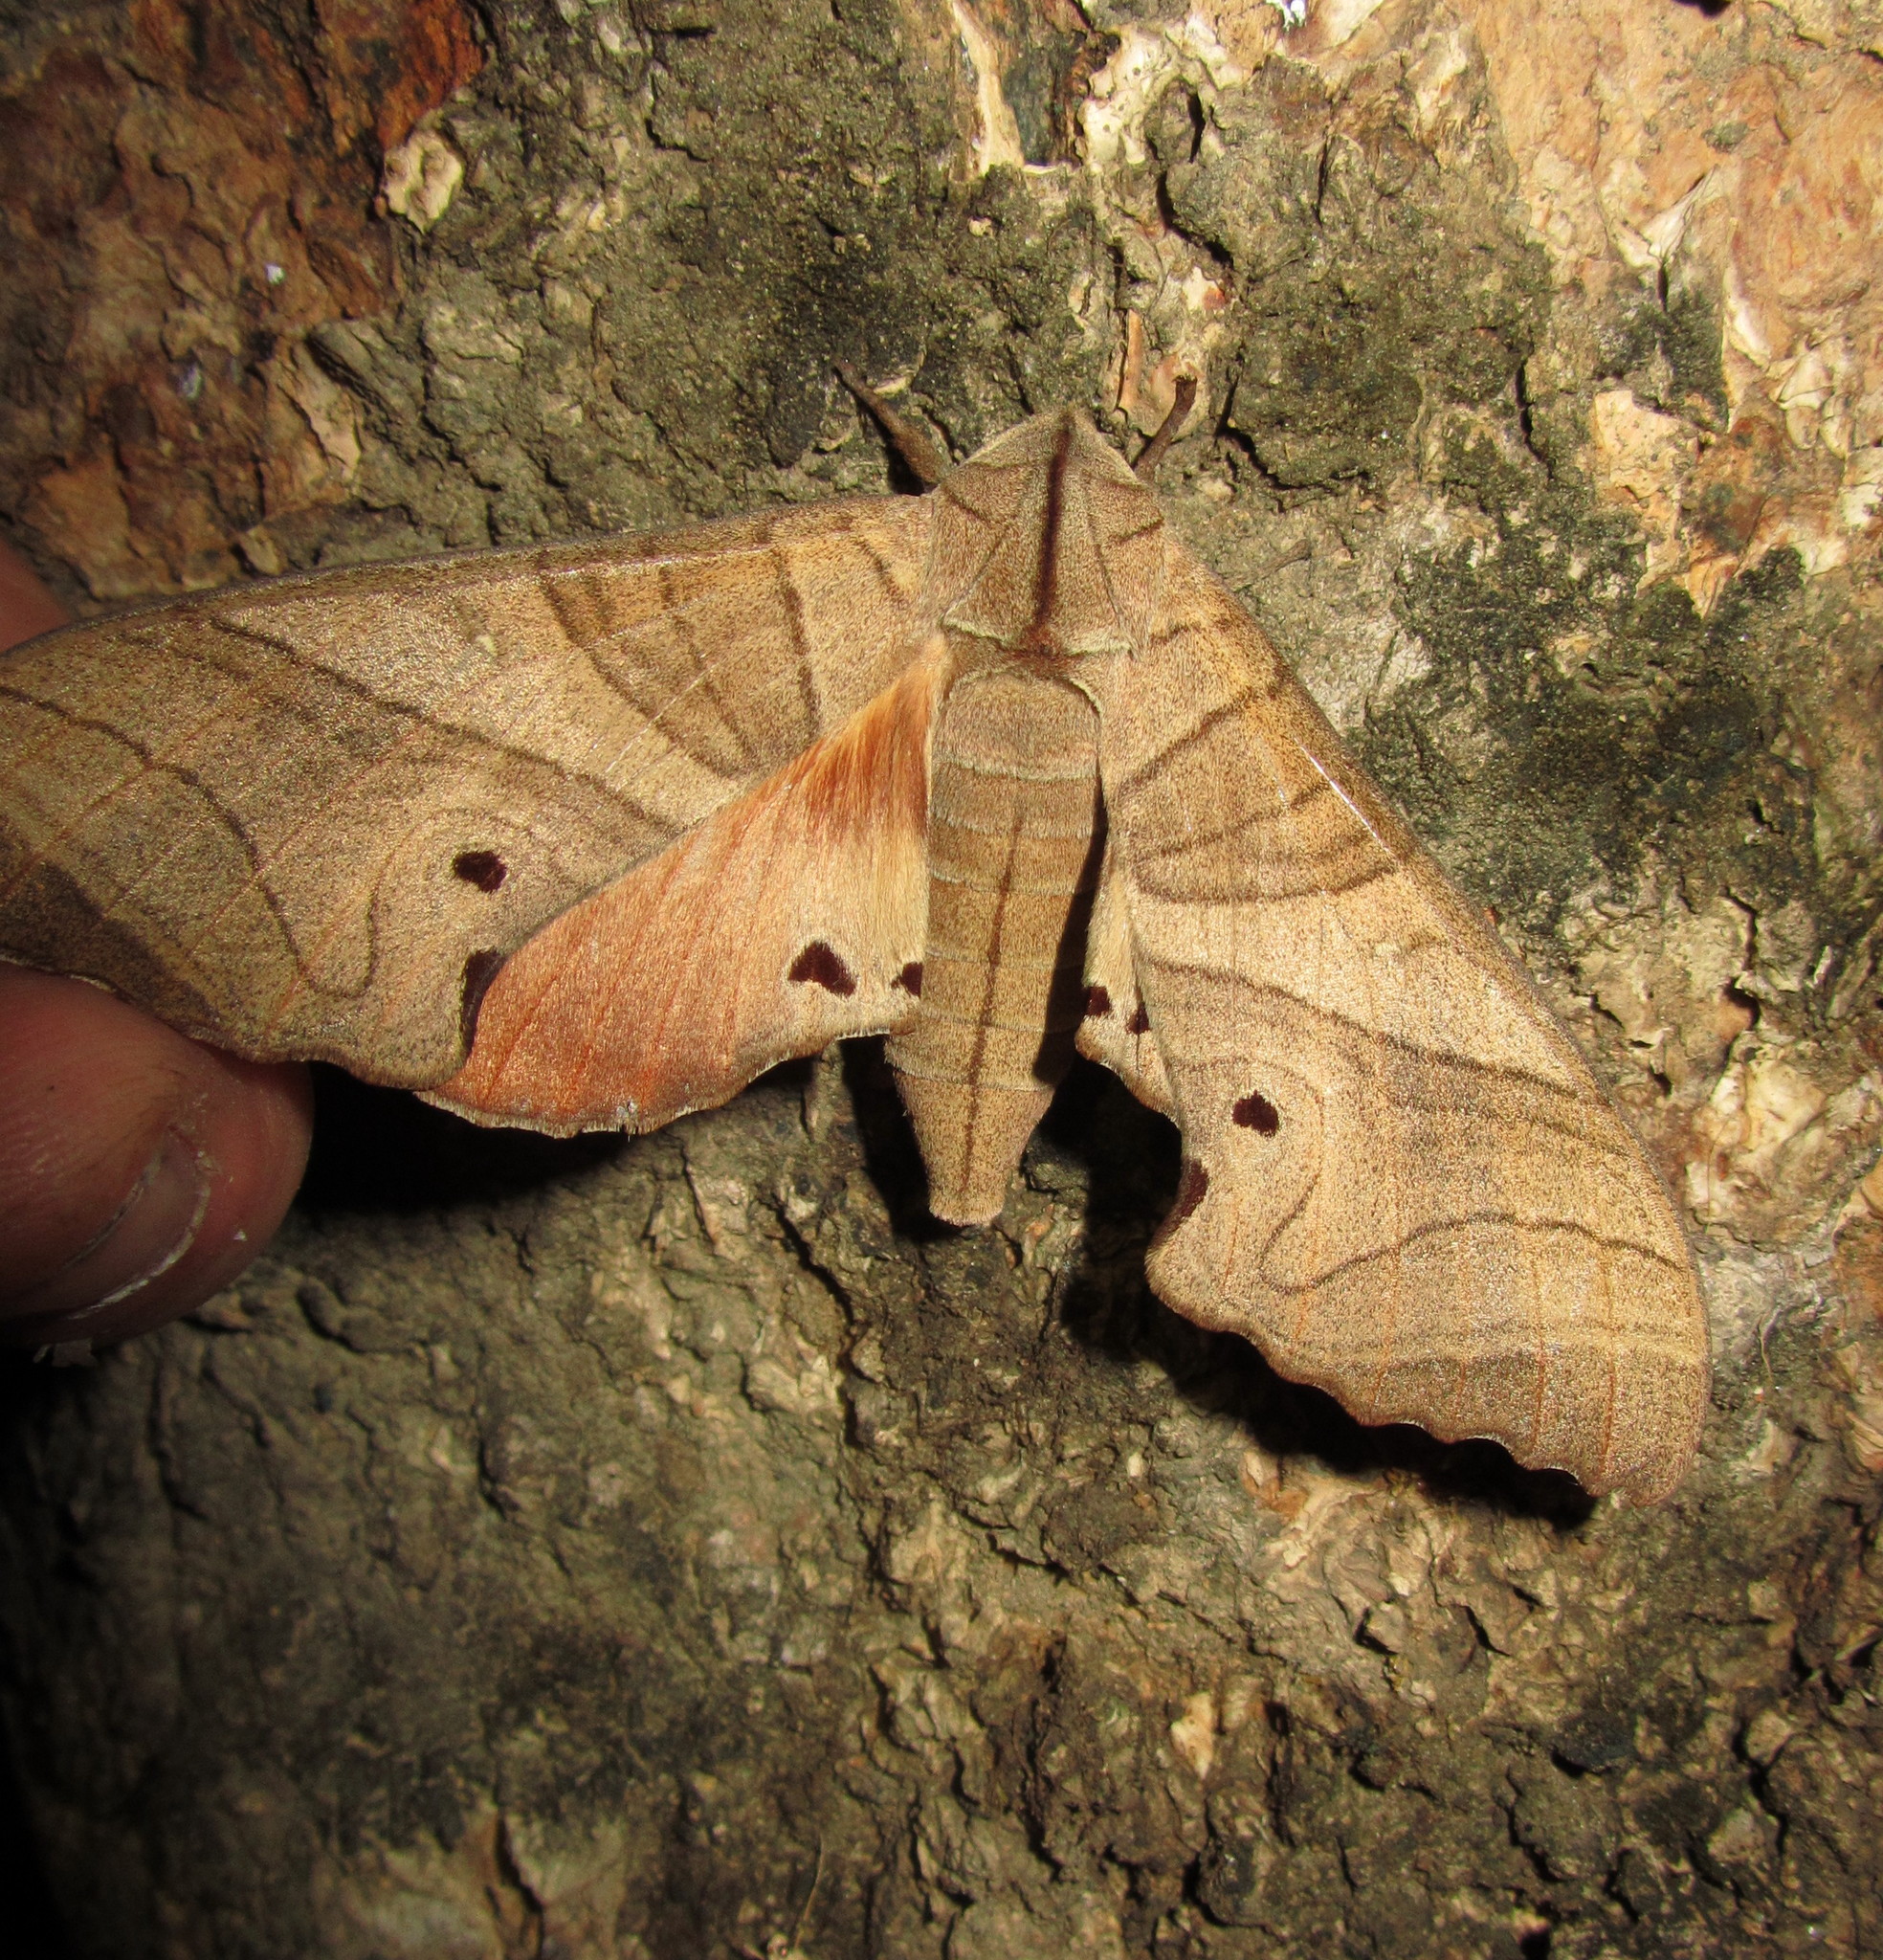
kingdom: Animalia
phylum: Arthropoda
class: Insecta
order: Lepidoptera
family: Sphingidae
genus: Marumba
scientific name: Marumba dyras
